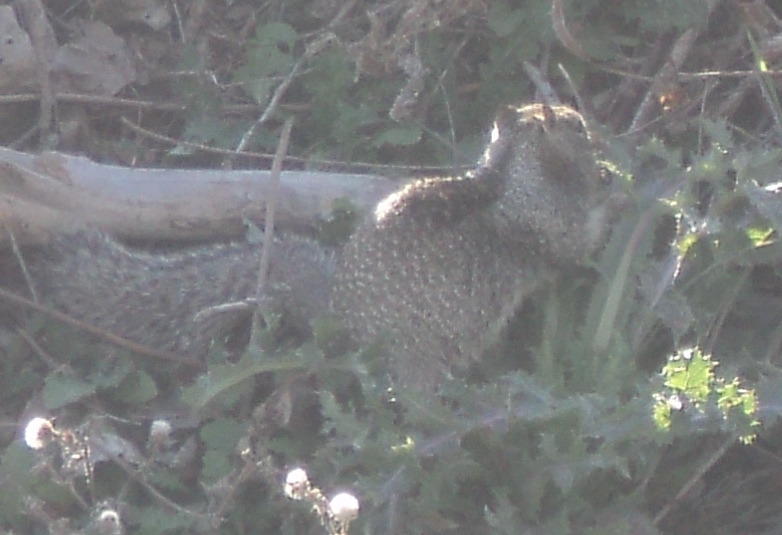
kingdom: Animalia
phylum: Chordata
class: Mammalia
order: Rodentia
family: Sciuridae
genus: Otospermophilus
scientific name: Otospermophilus beecheyi
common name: California ground squirrel
